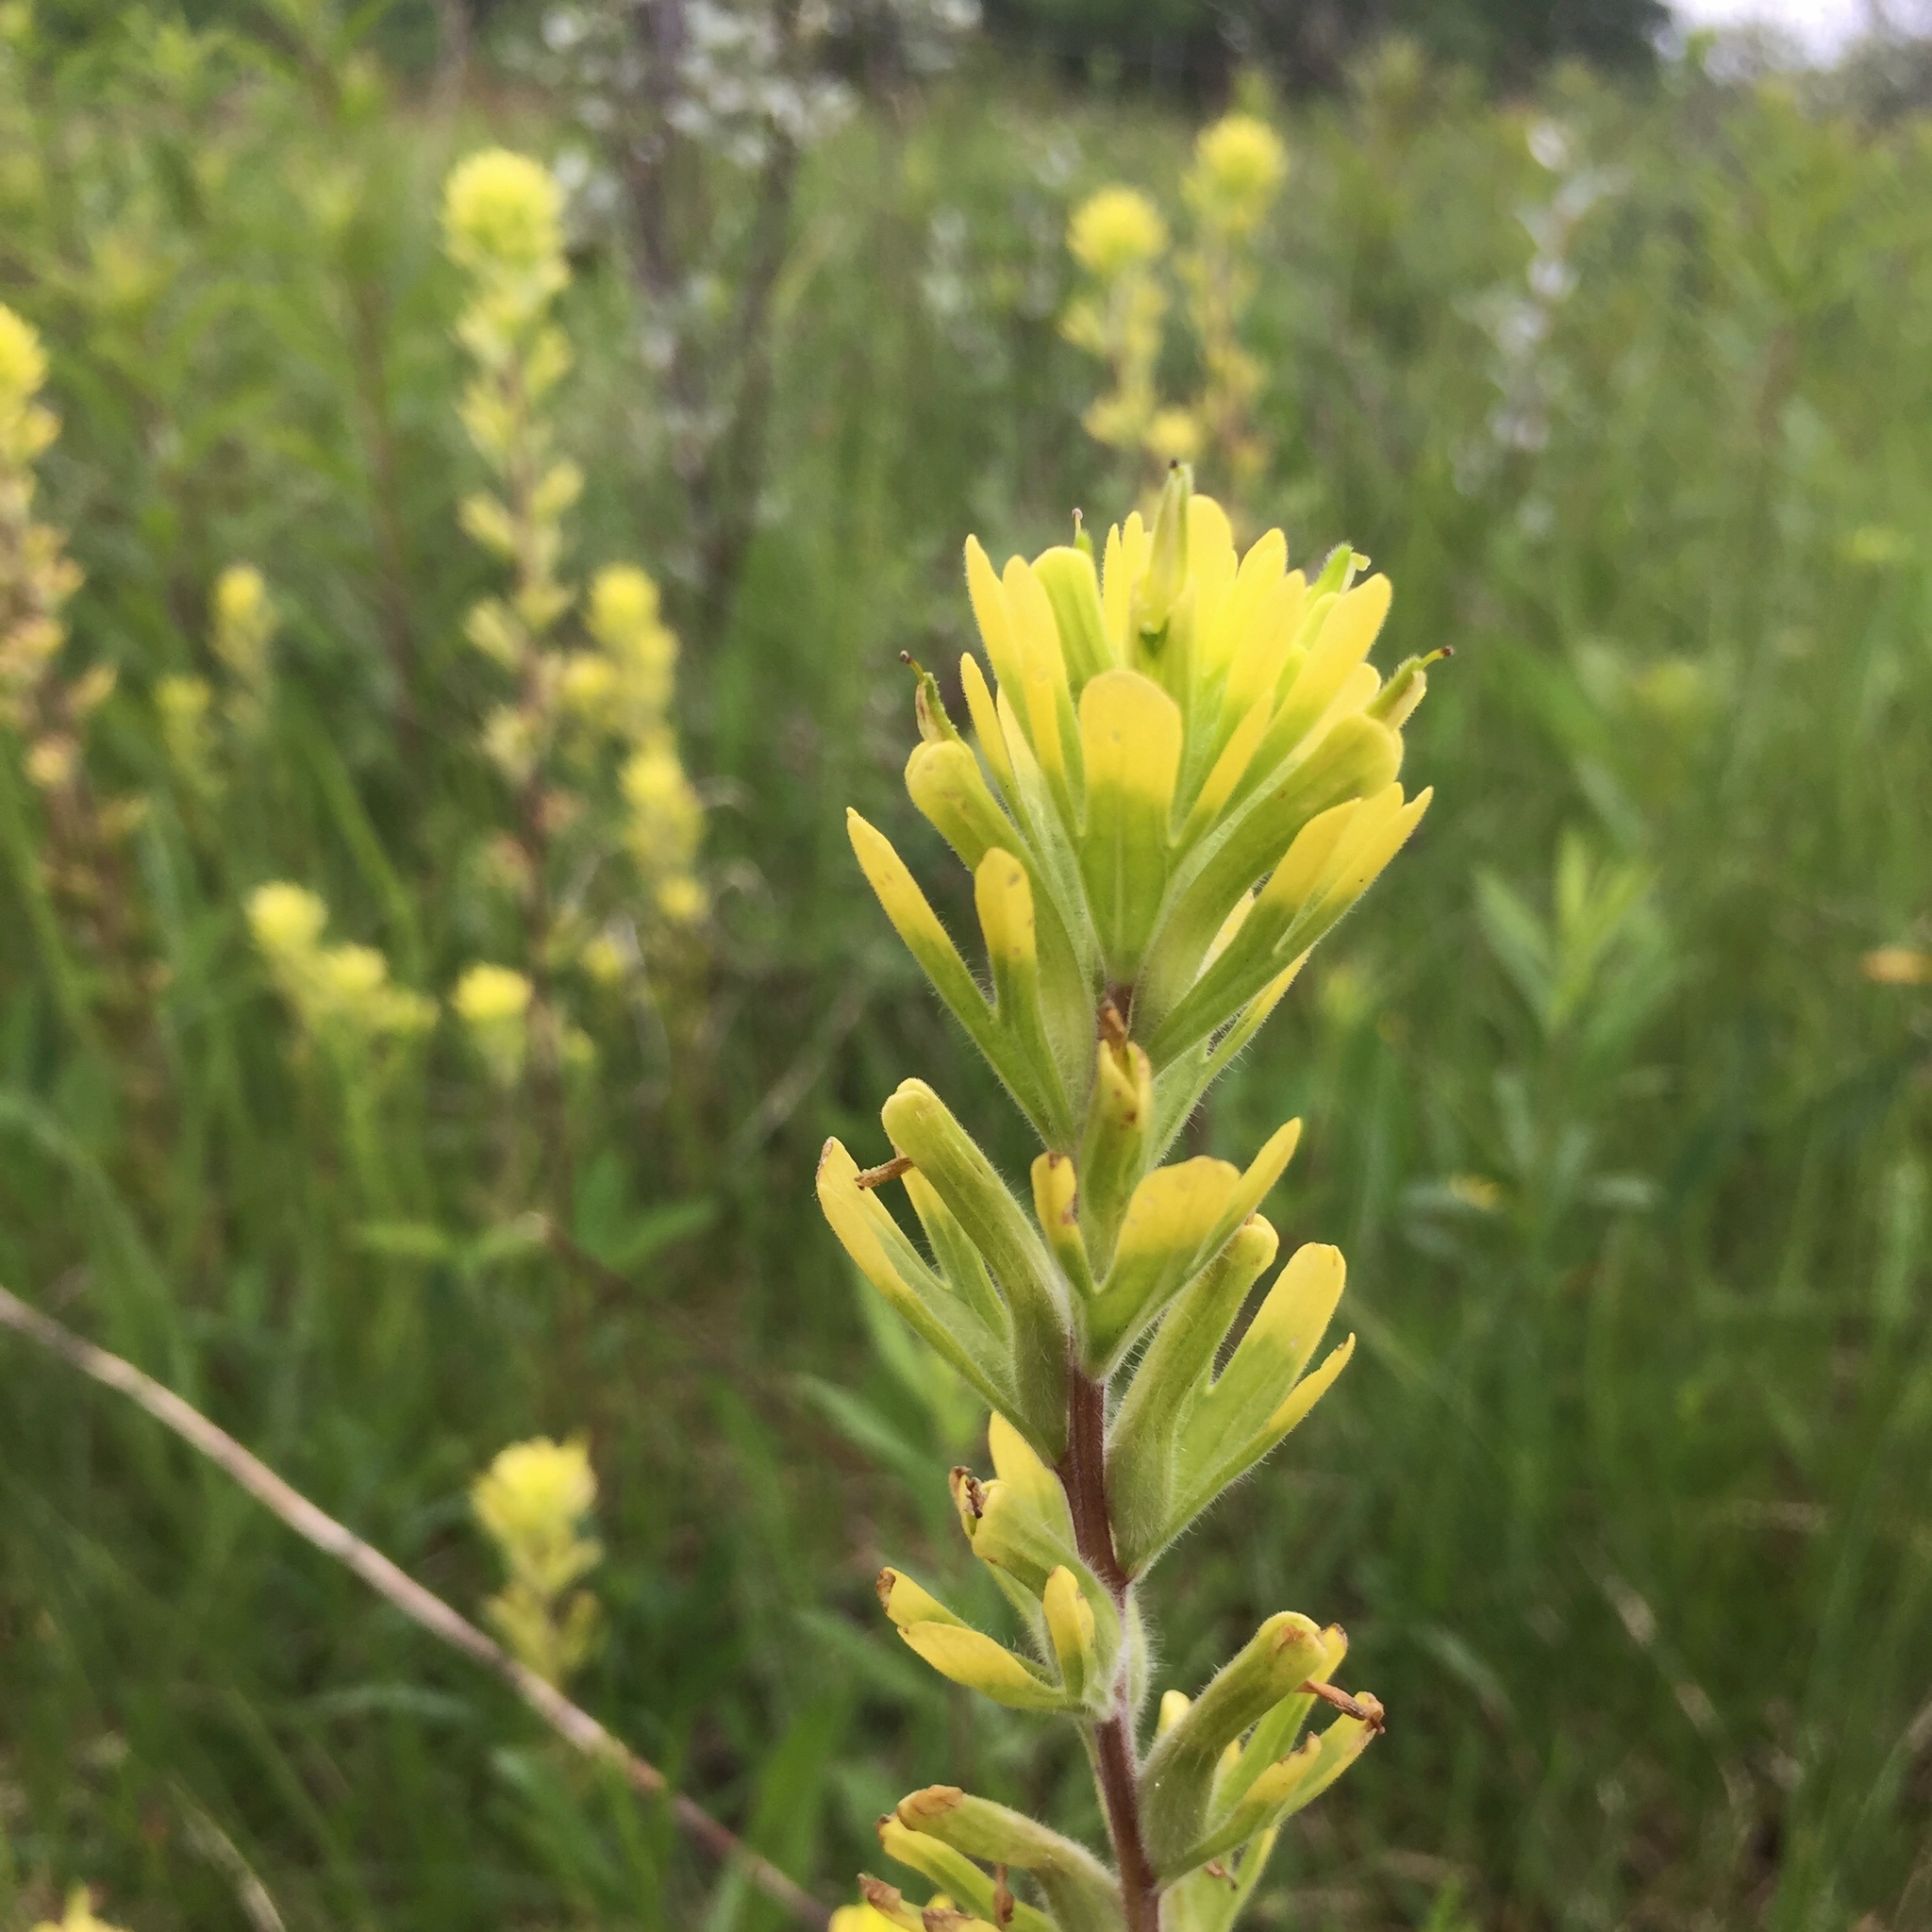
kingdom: Plantae
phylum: Tracheophyta
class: Magnoliopsida
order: Lamiales
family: Orobanchaceae
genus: Castilleja
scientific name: Castilleja coccinea
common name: Scarlet paintbrush
